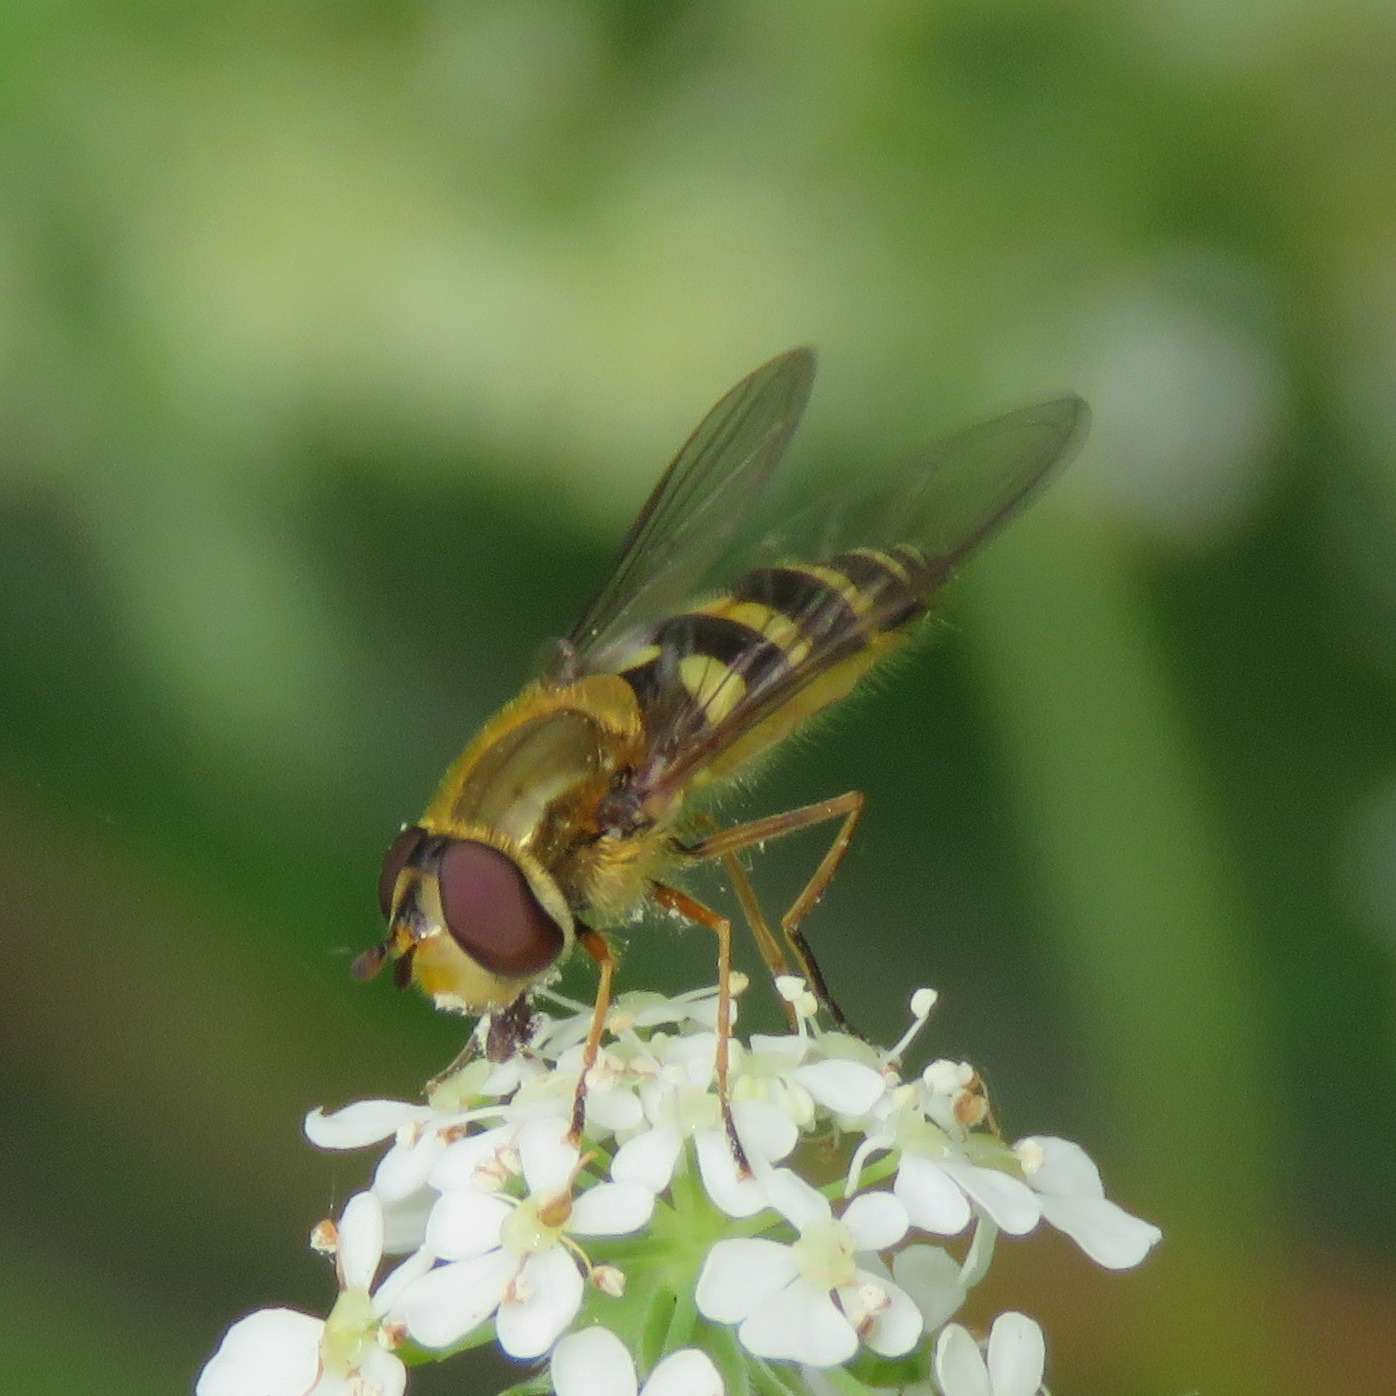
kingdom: Animalia
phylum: Arthropoda
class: Insecta
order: Diptera
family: Syrphidae
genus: Syrphus
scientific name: Syrphus ribesii
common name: Common flower fly
